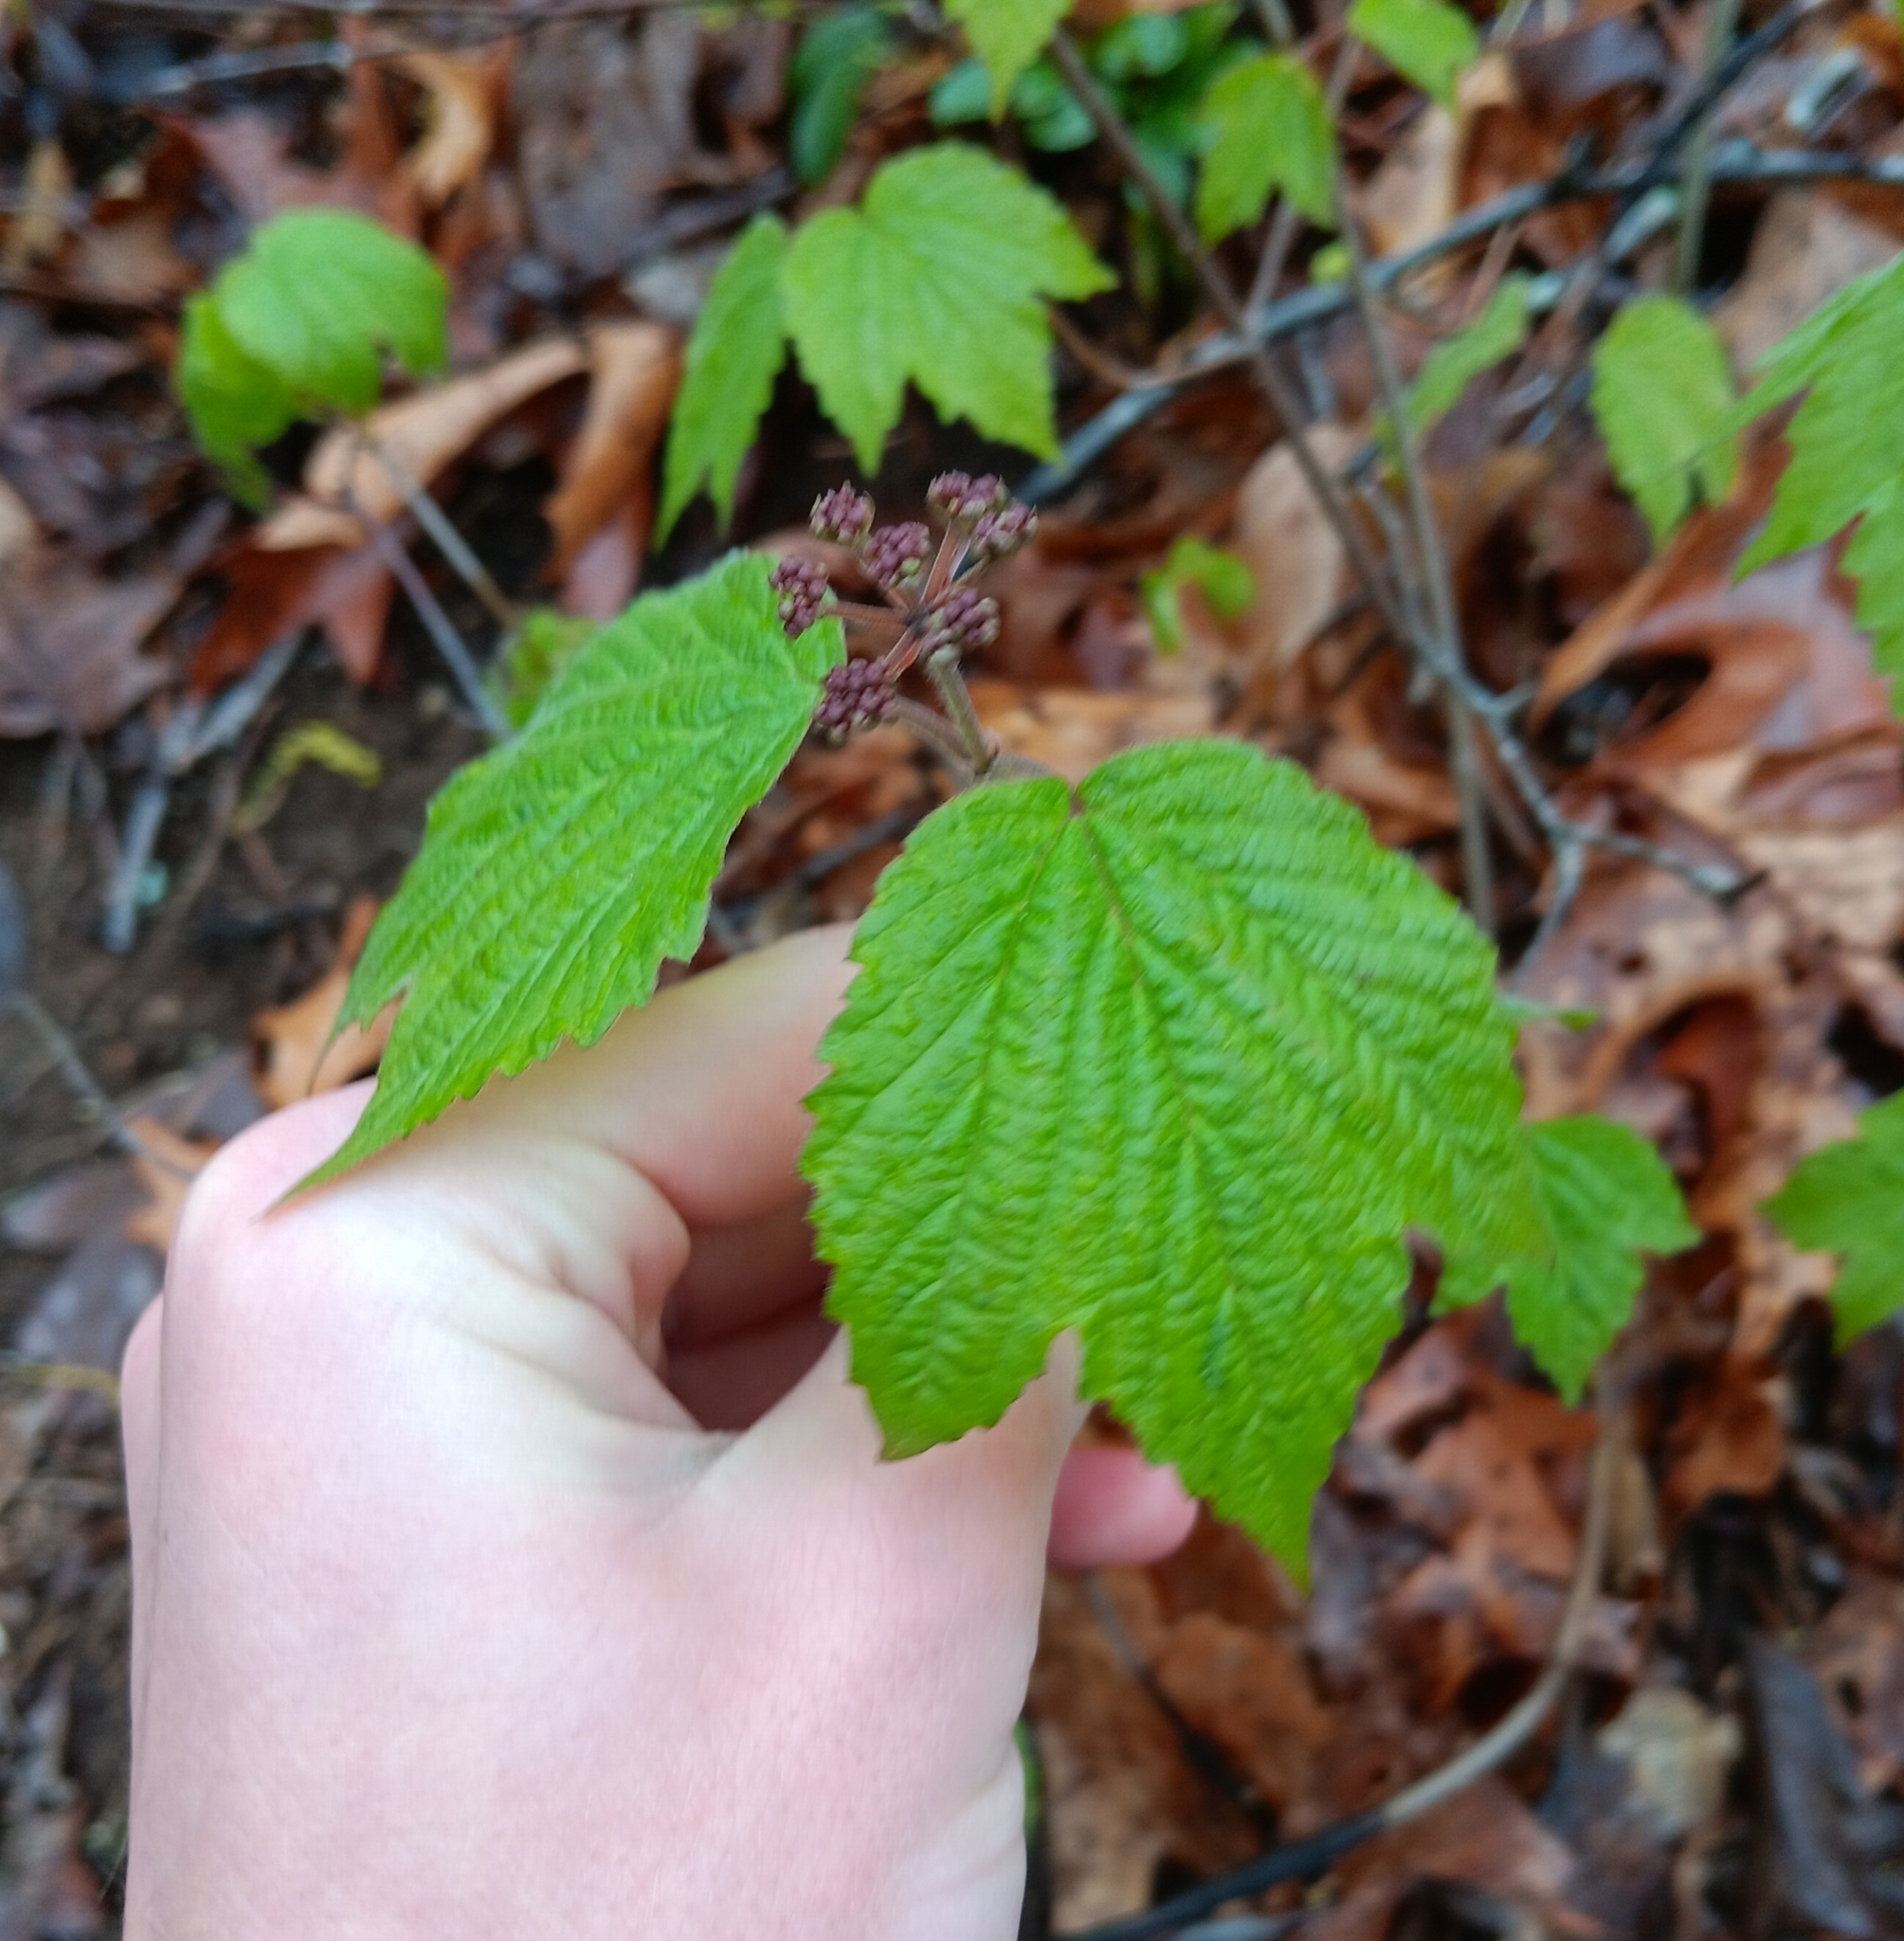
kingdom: Plantae
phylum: Tracheophyta
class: Magnoliopsida
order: Dipsacales
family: Viburnaceae
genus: Viburnum
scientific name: Viburnum acerifolium
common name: Dockmackie
